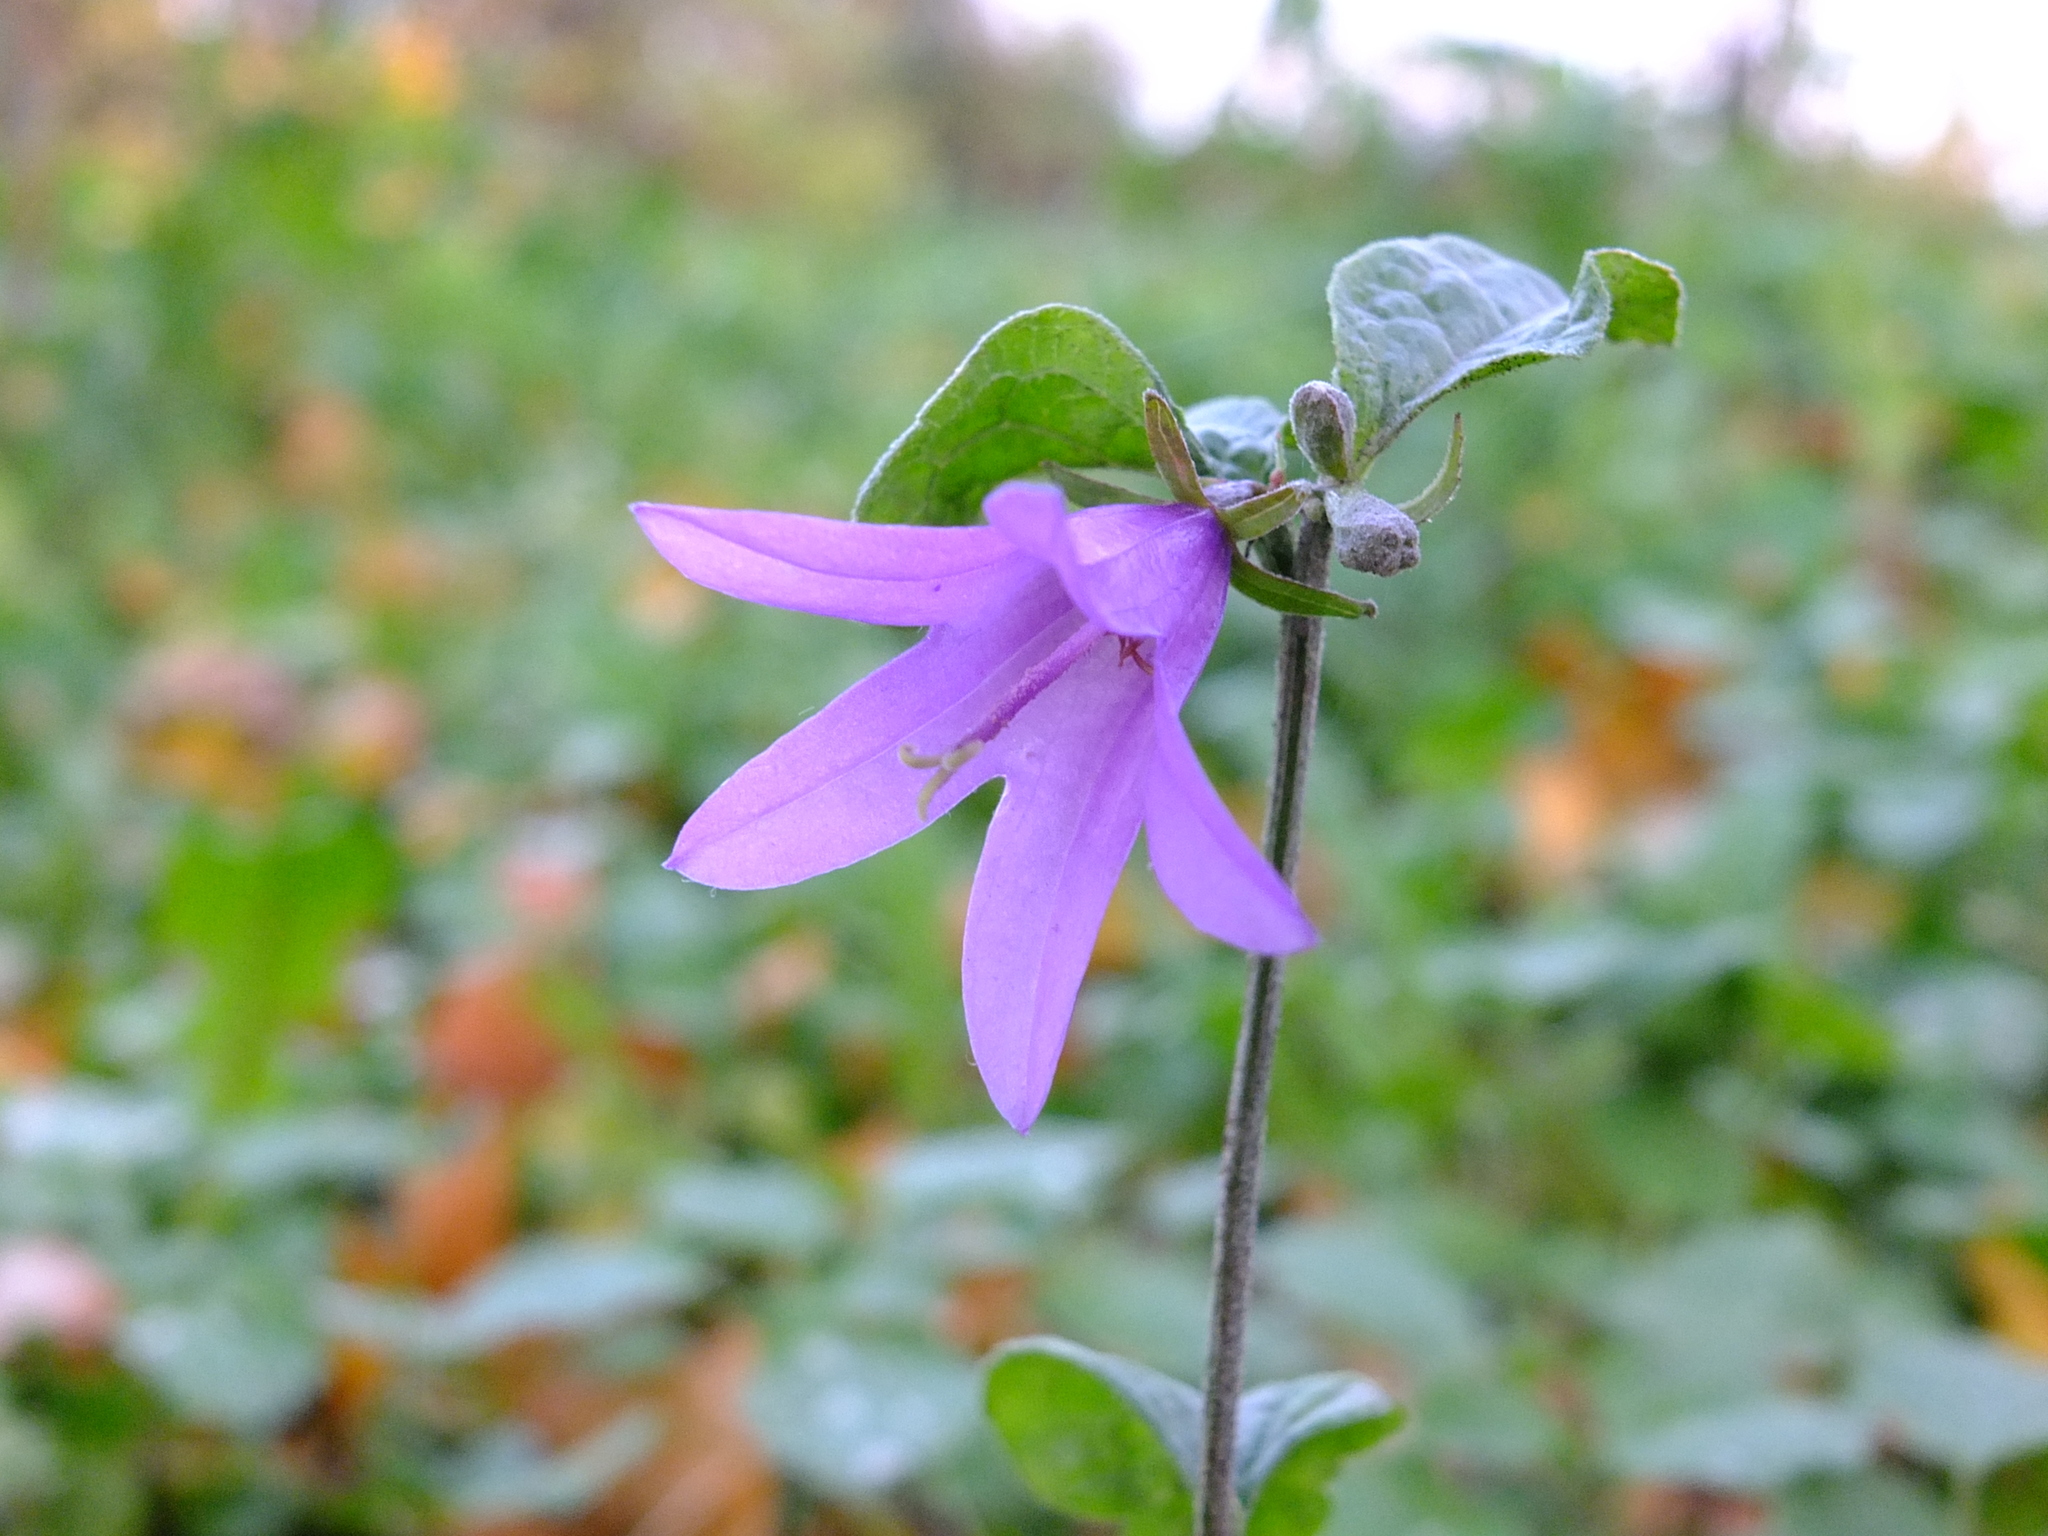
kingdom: Plantae
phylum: Tracheophyta
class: Magnoliopsida
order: Asterales
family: Campanulaceae
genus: Campanula
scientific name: Campanula rapunculoides
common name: Creeping bellflower
